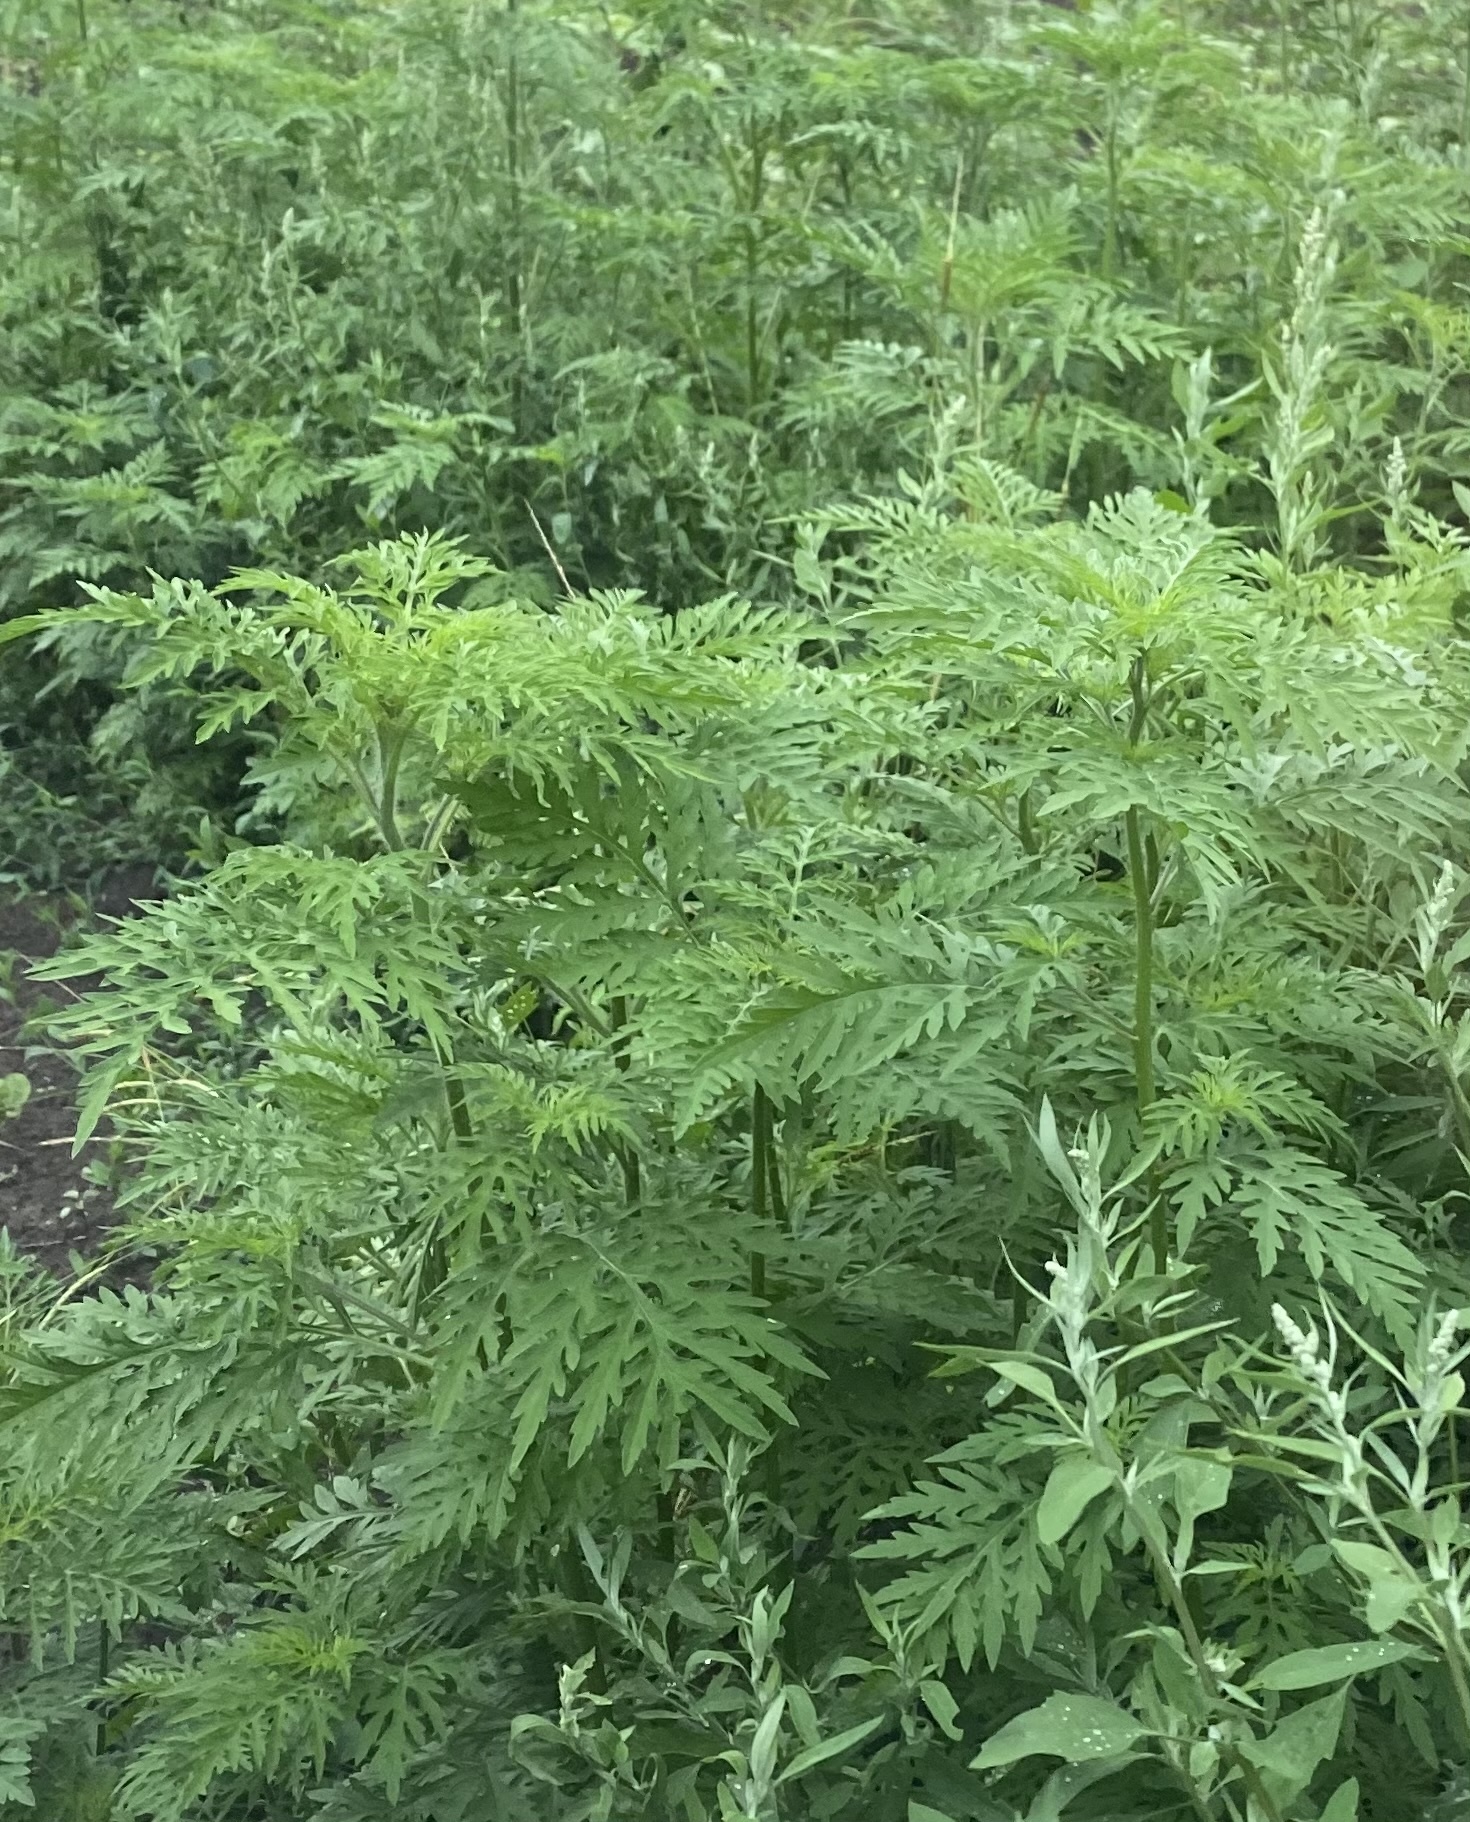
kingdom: Plantae
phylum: Tracheophyta
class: Magnoliopsida
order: Asterales
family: Asteraceae
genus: Ambrosia
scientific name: Ambrosia artemisiifolia
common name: Annual ragweed
